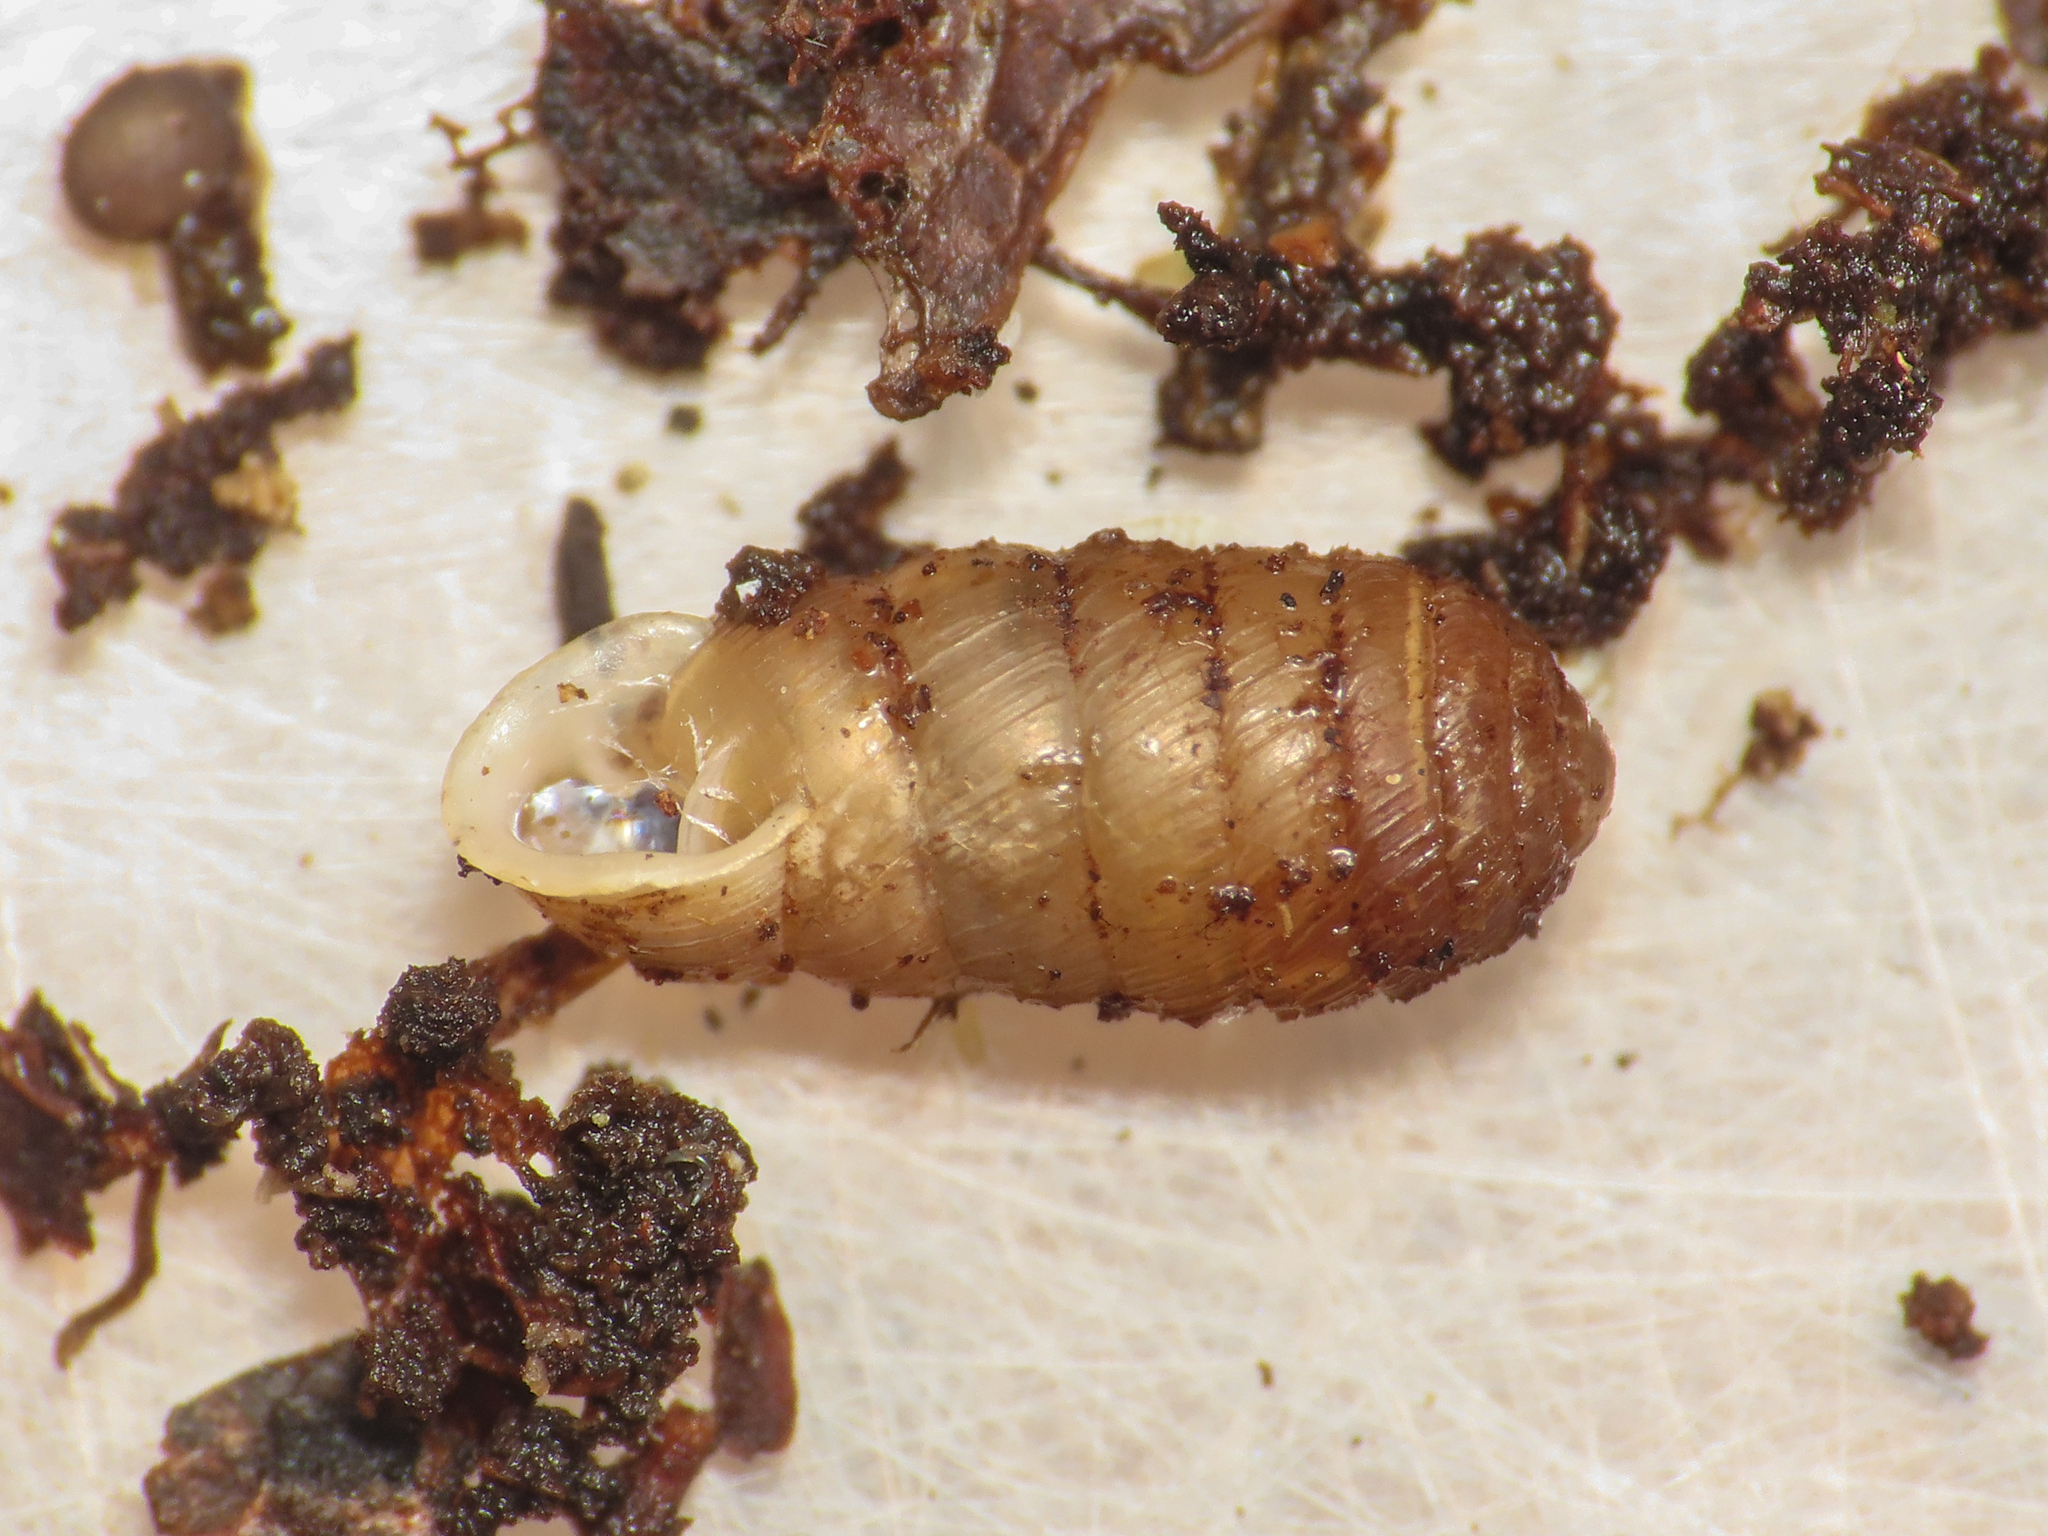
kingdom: Animalia
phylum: Mollusca
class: Gastropoda
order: Stylommatophora
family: Orculidae
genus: Sphyradium
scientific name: Sphyradium doliolum
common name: Tiny drumsnail
